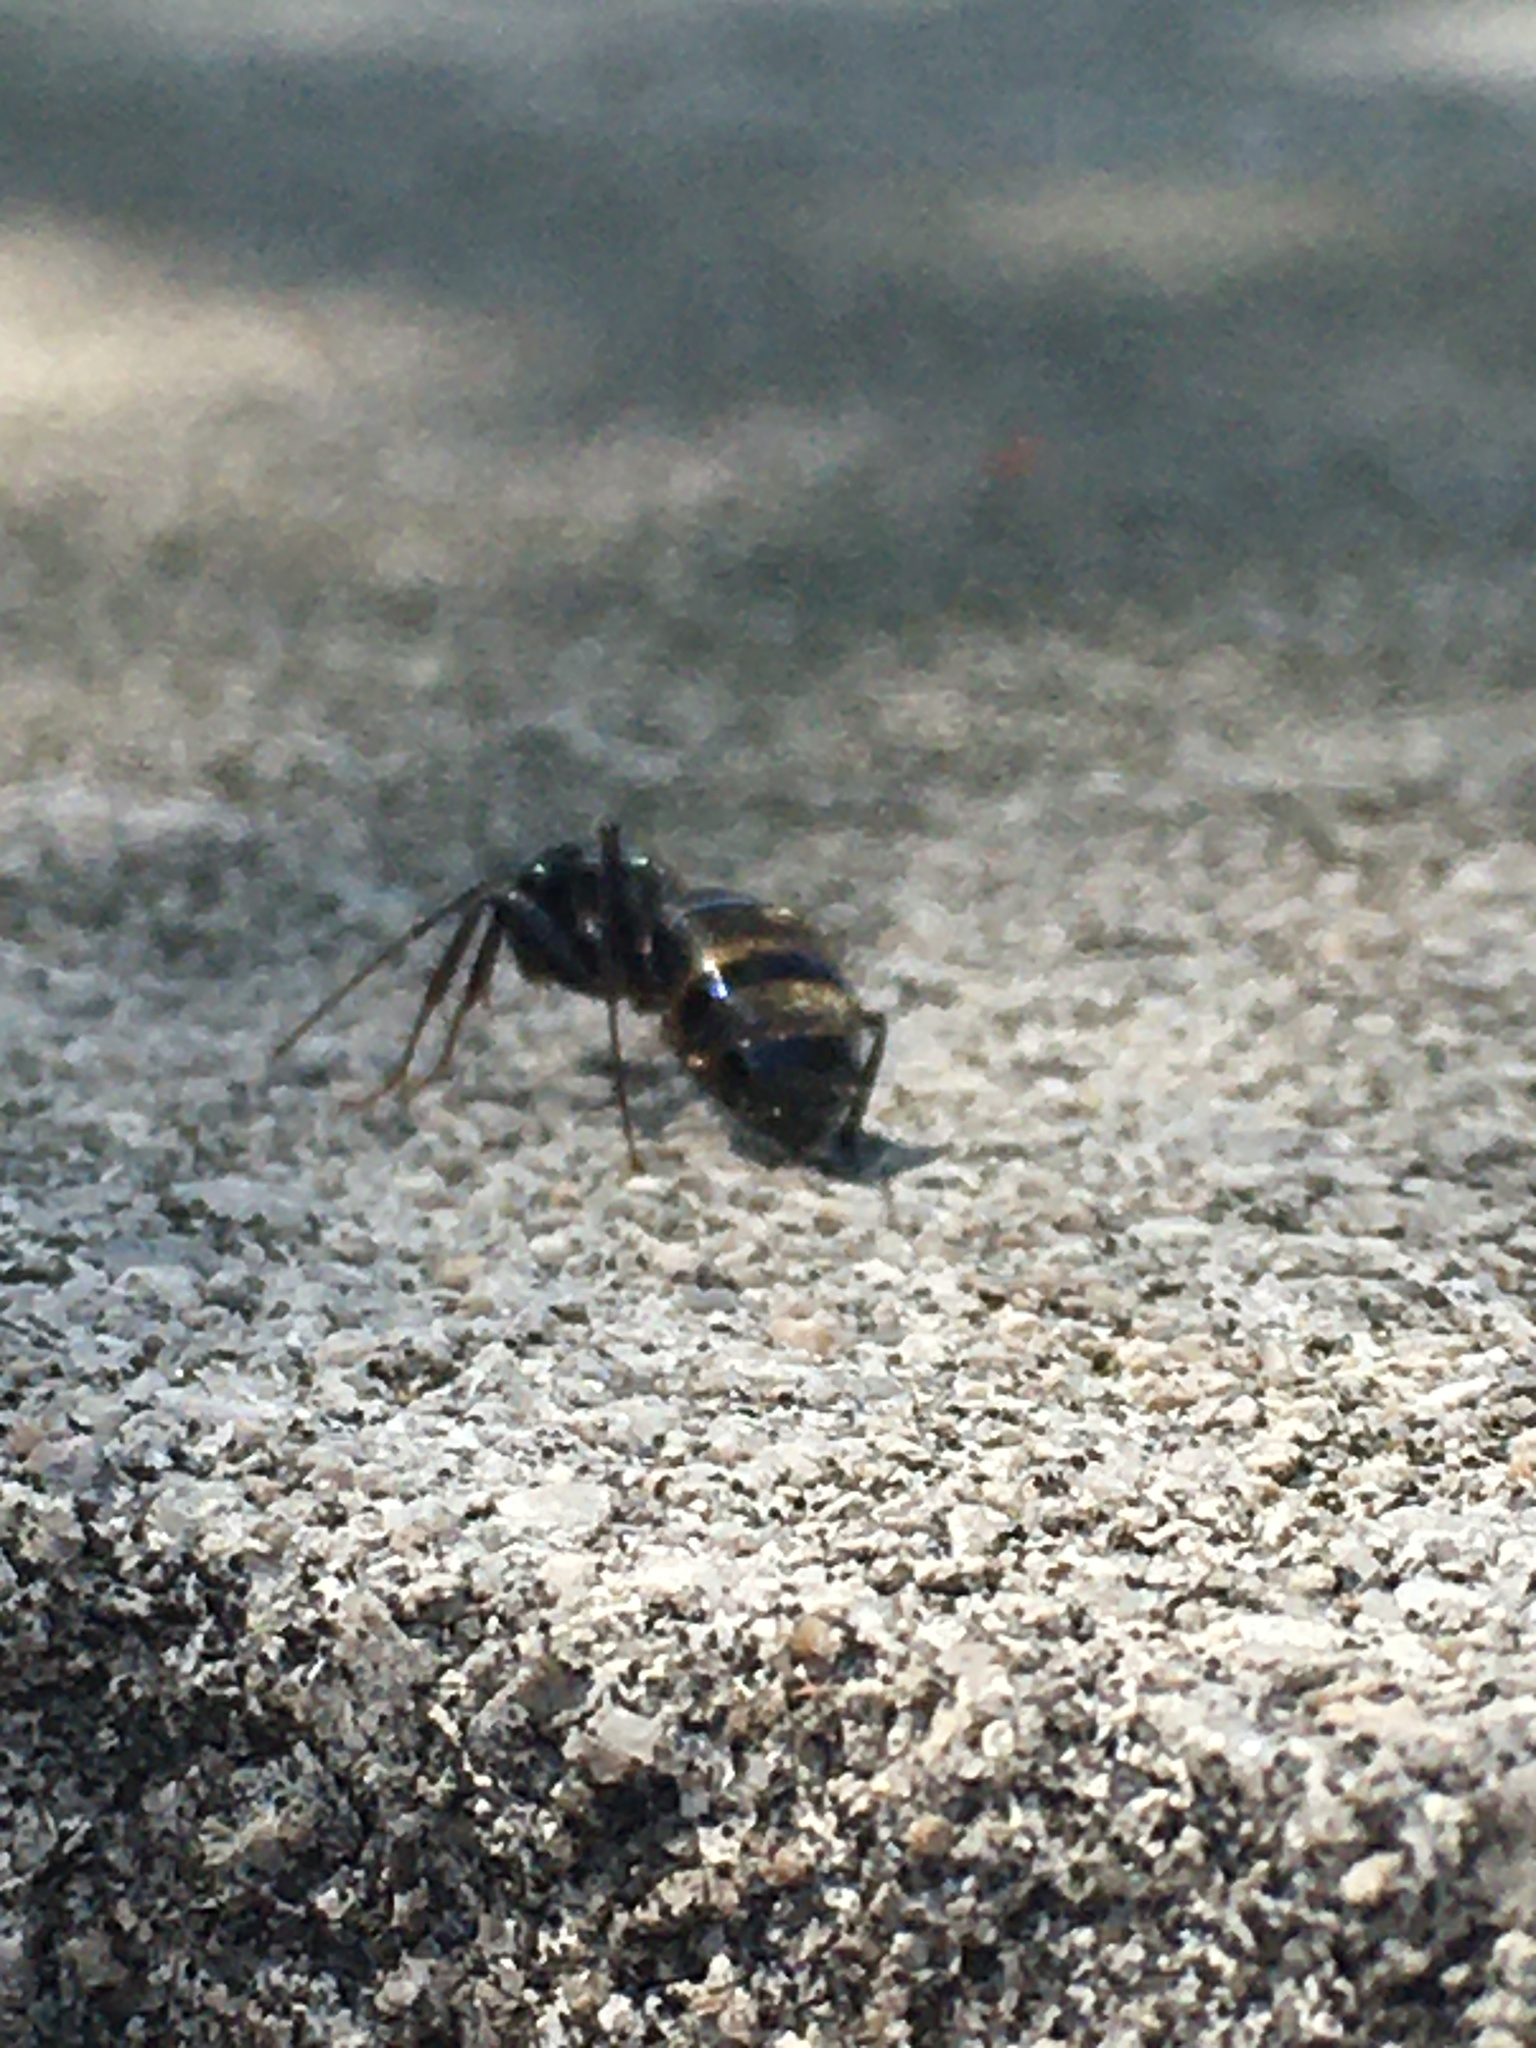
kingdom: Animalia
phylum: Arthropoda
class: Insecta
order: Hymenoptera
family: Formicidae
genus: Camponotus
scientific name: Camponotus pennsylvanicus
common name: Black carpenter ant
